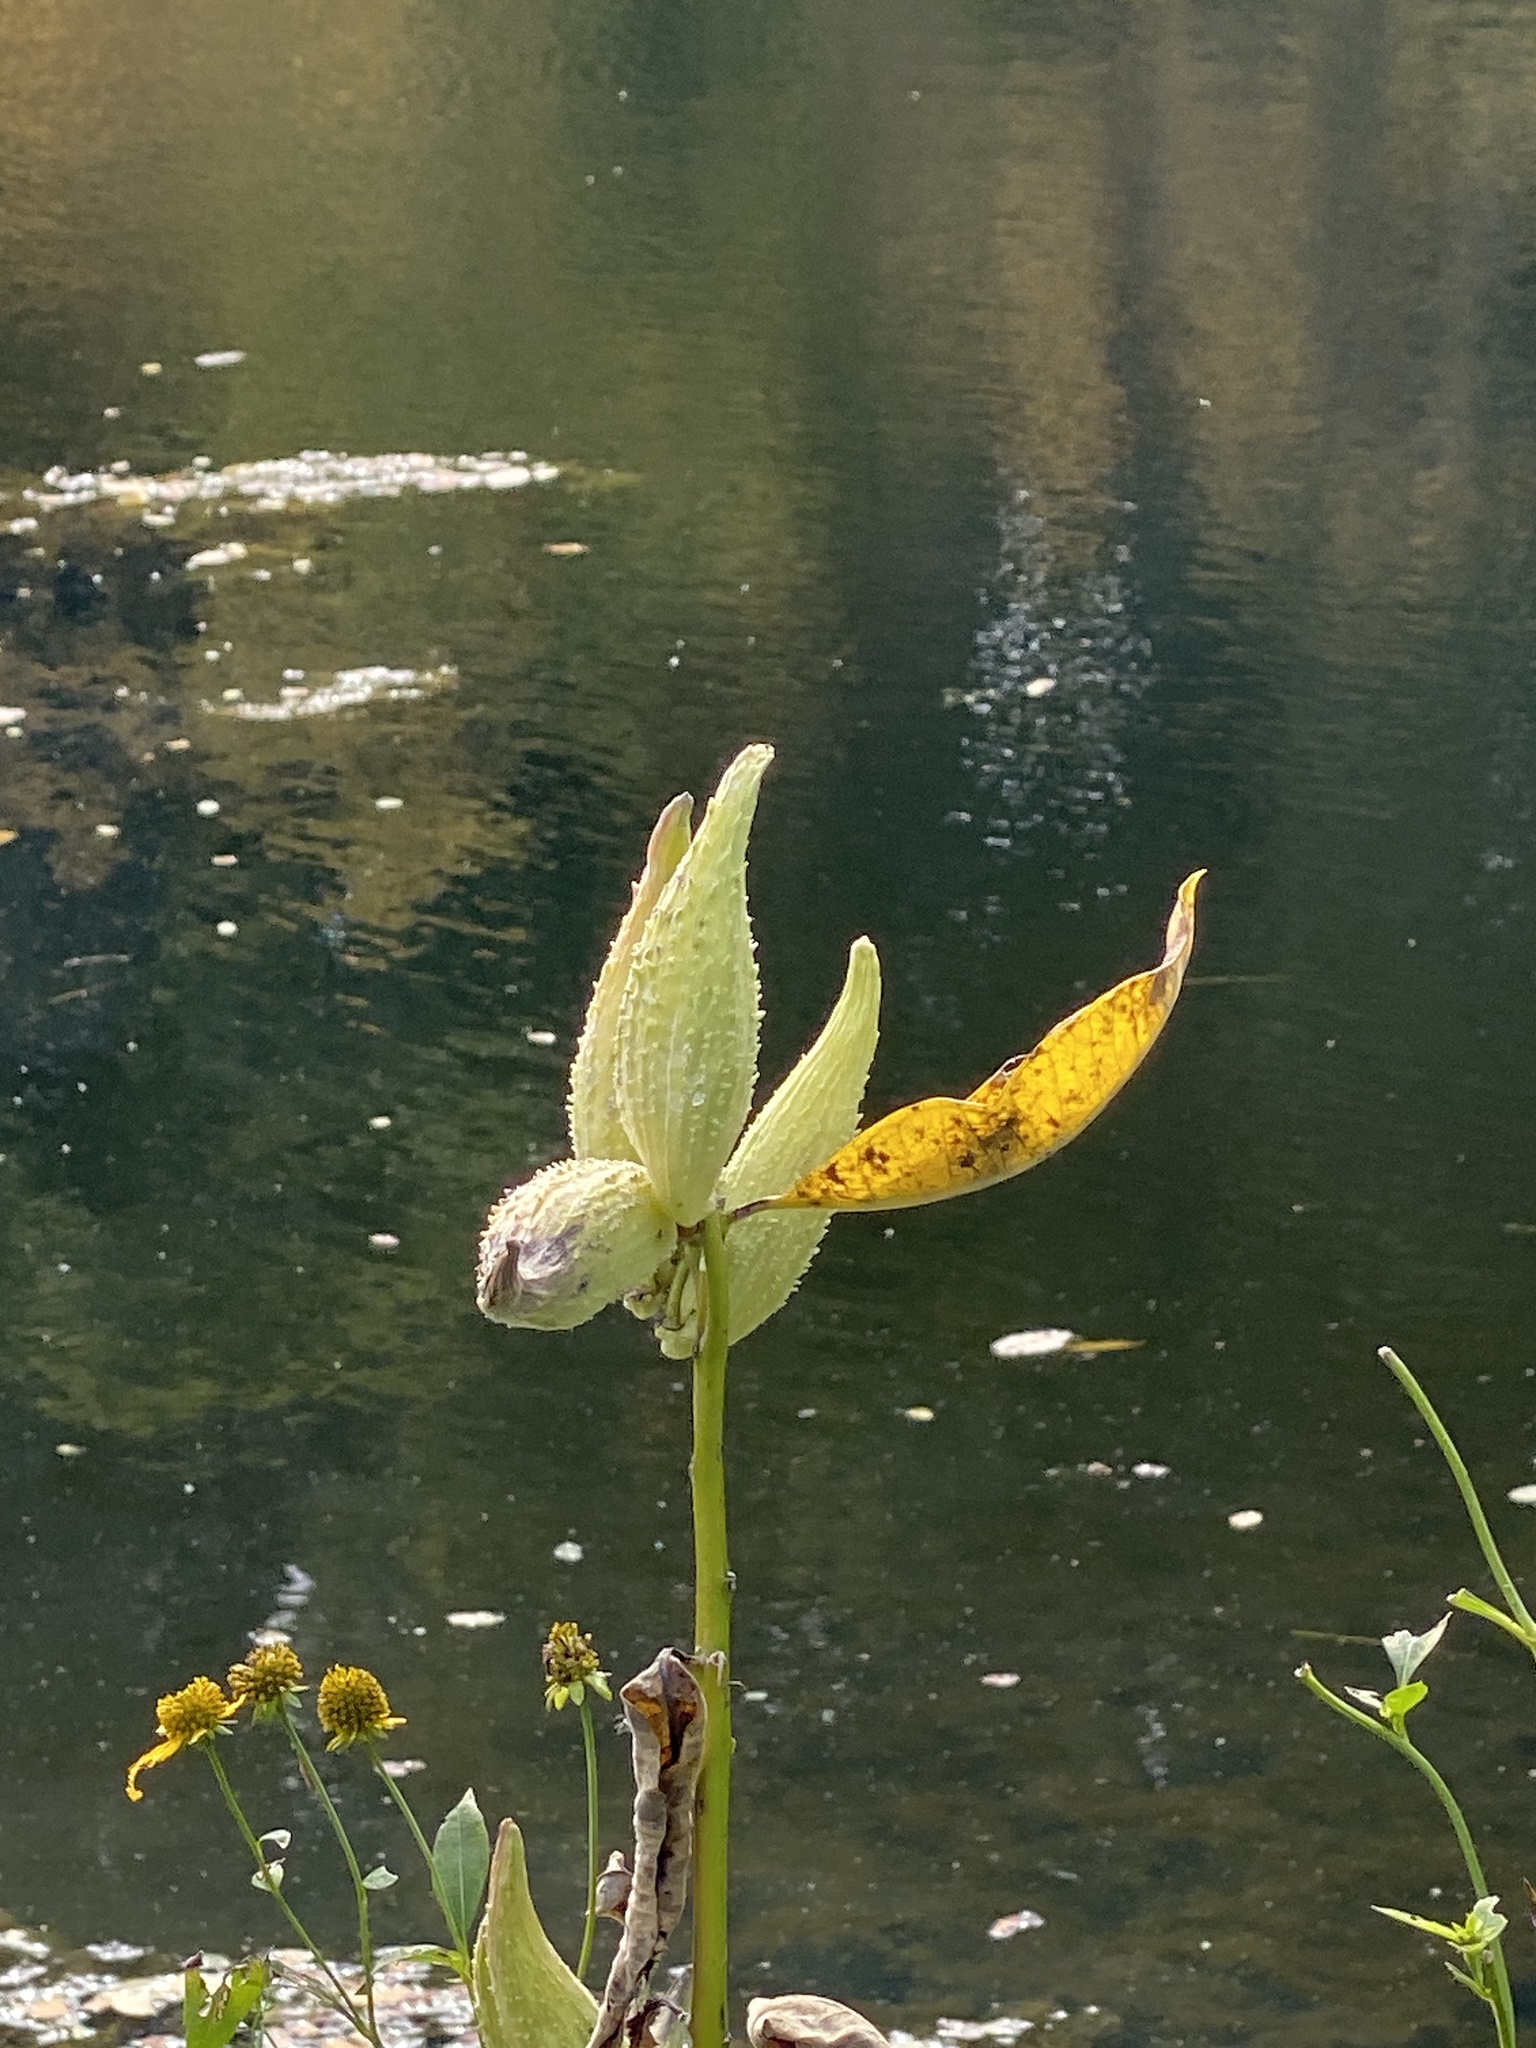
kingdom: Plantae
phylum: Tracheophyta
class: Magnoliopsida
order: Gentianales
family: Apocynaceae
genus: Asclepias
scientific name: Asclepias syriaca
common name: Common milkweed
